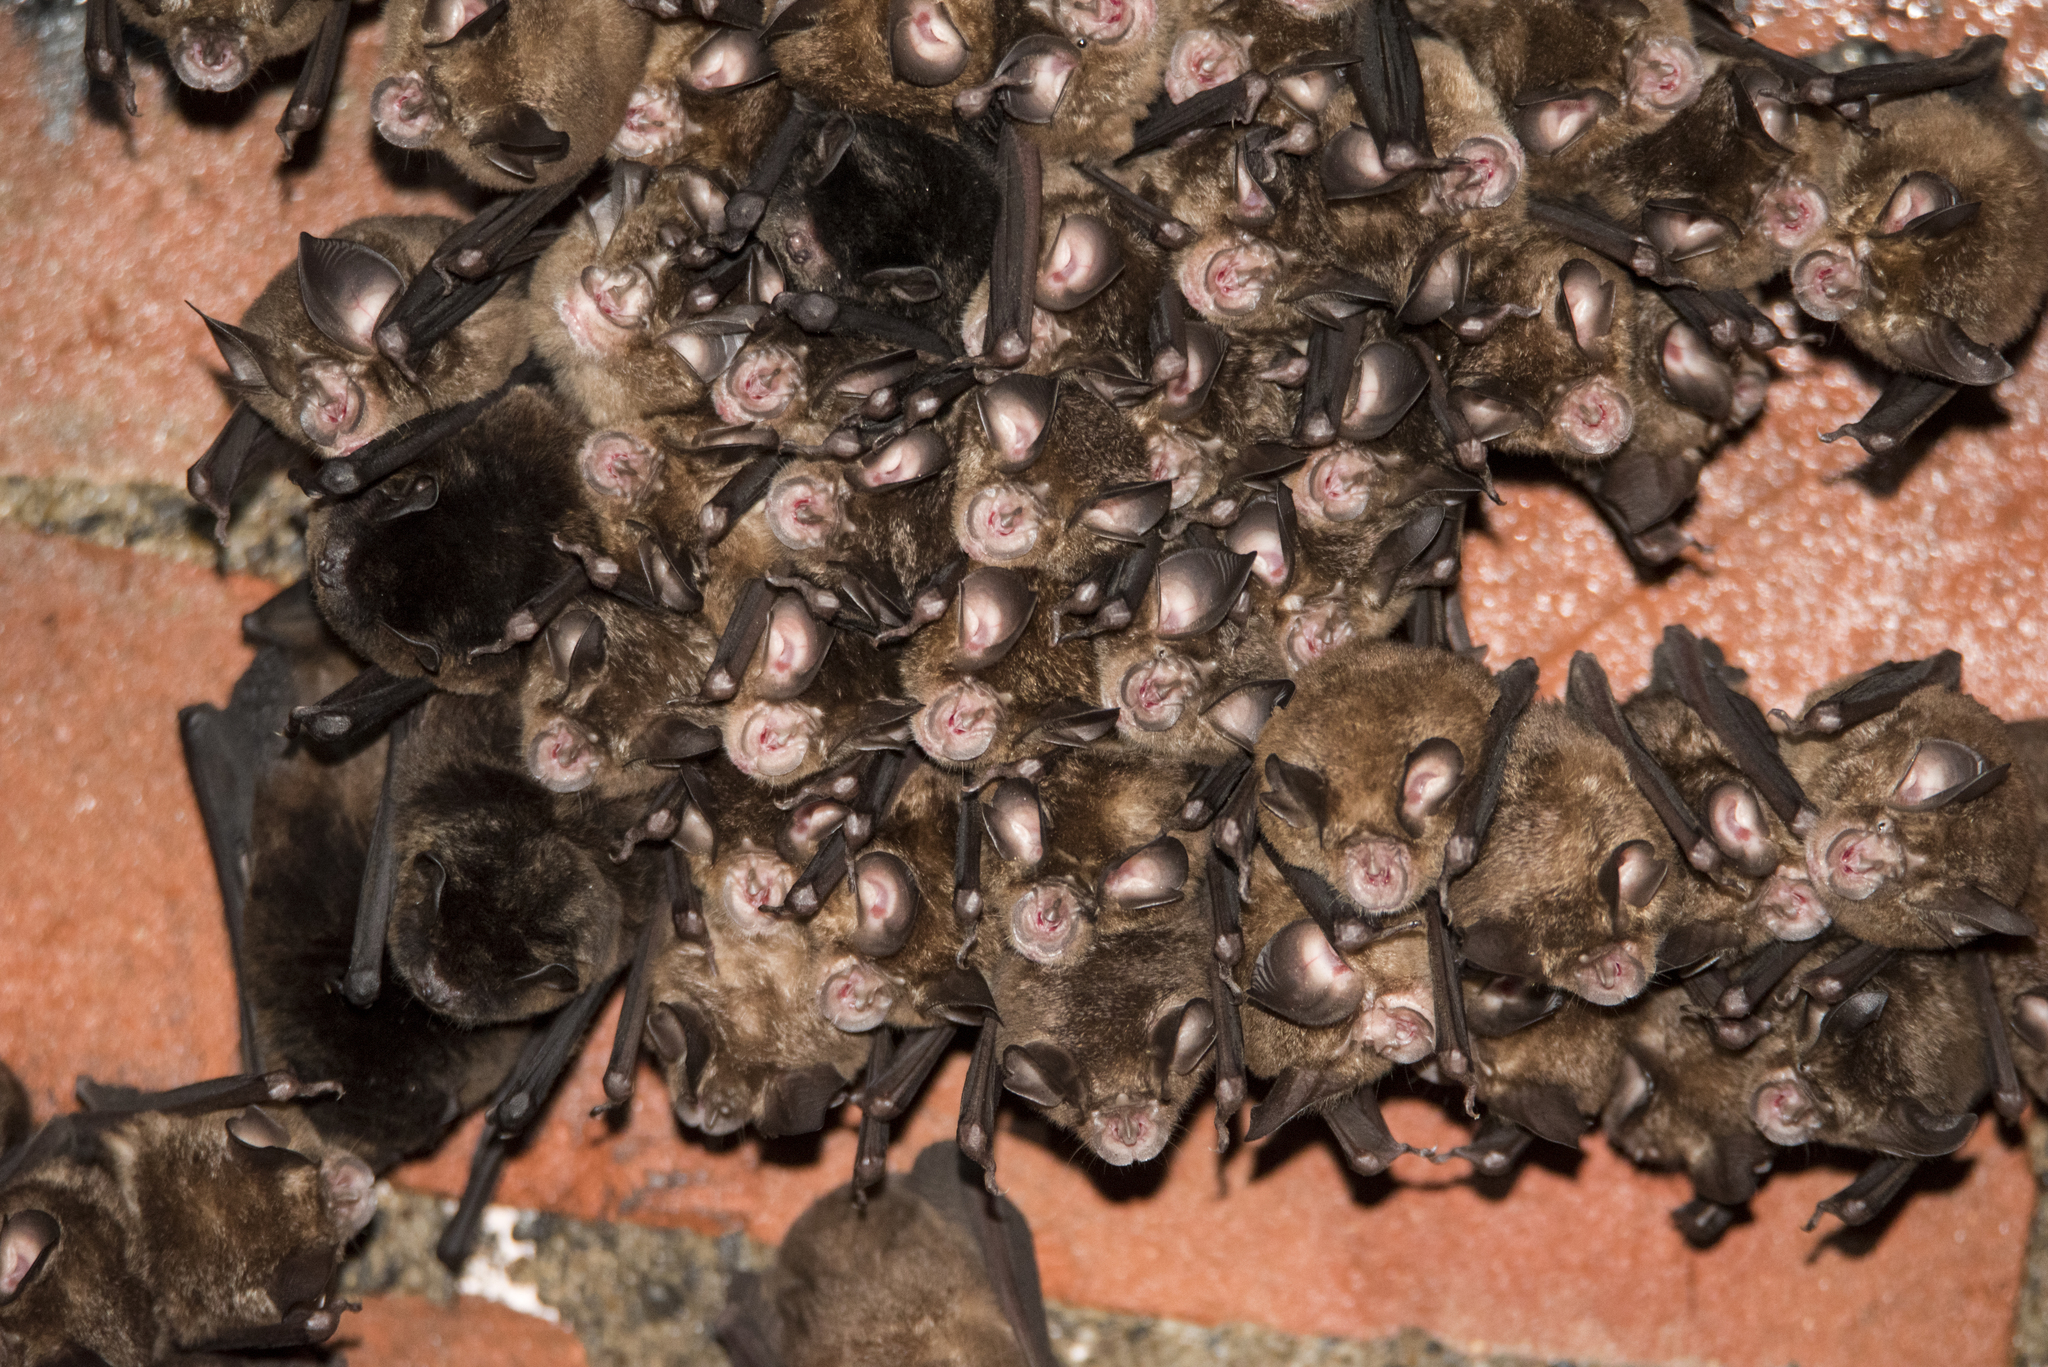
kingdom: Animalia
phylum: Chordata
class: Mammalia
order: Chiroptera
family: Rhinolophidae
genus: Rhinolophus
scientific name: Rhinolophus monoceros
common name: Formosan lesser horseshoe bat
